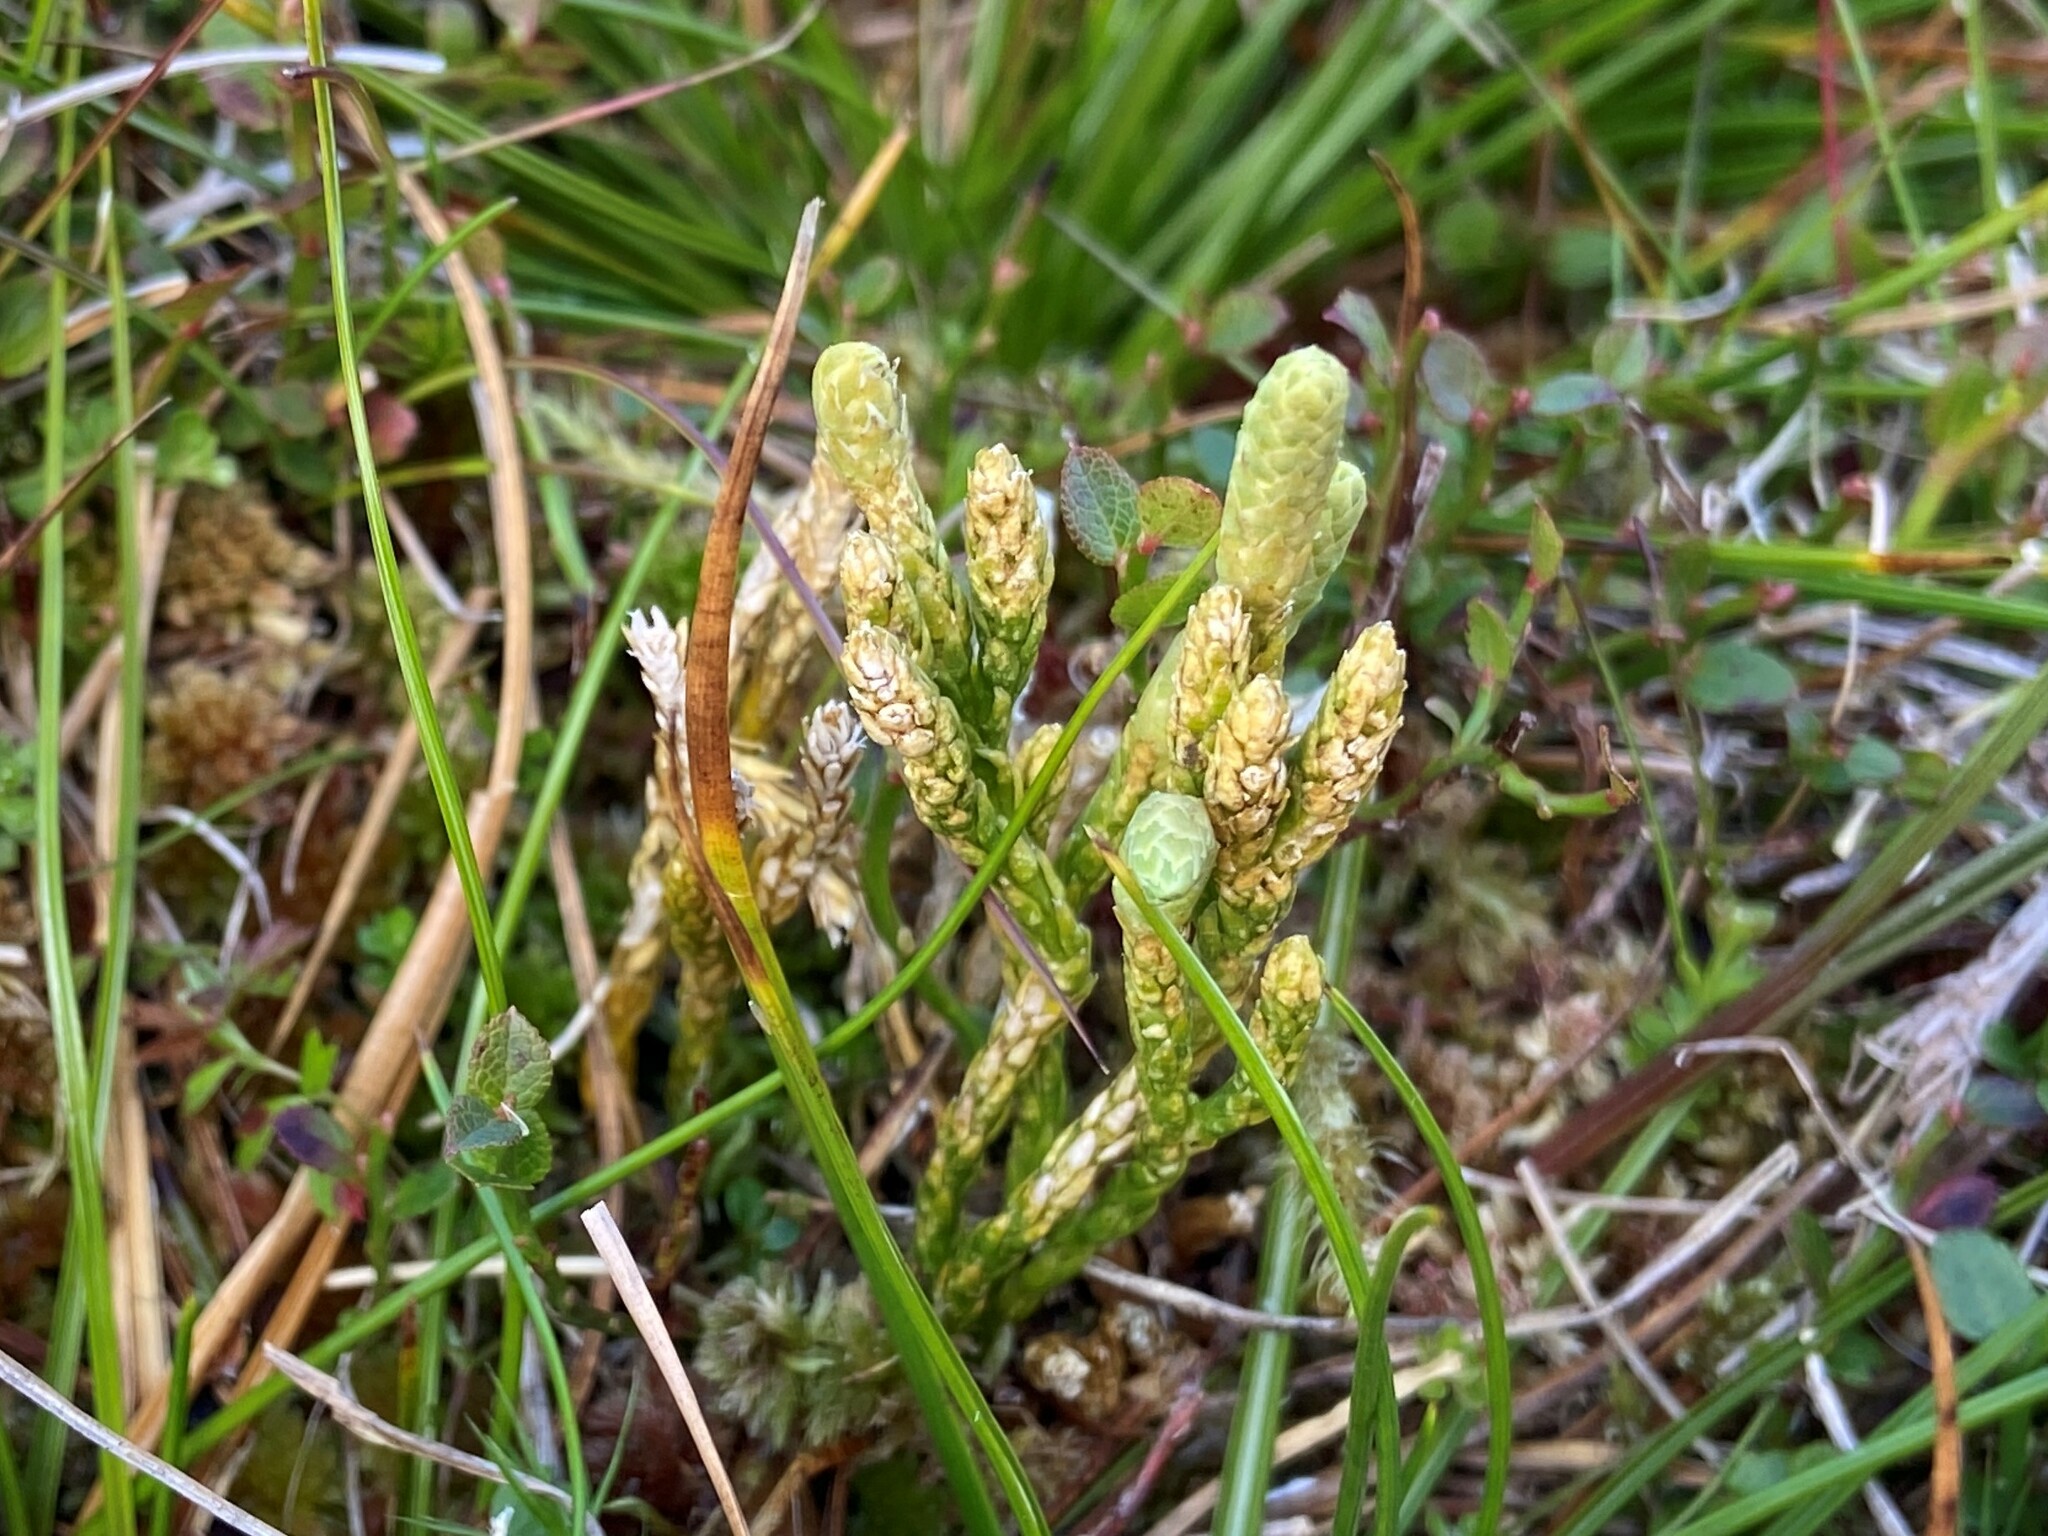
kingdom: Plantae
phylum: Tracheophyta
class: Lycopodiopsida
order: Lycopodiales
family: Lycopodiaceae
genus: Diphasiastrum
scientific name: Diphasiastrum alpinum
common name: Alpine clubmoss
